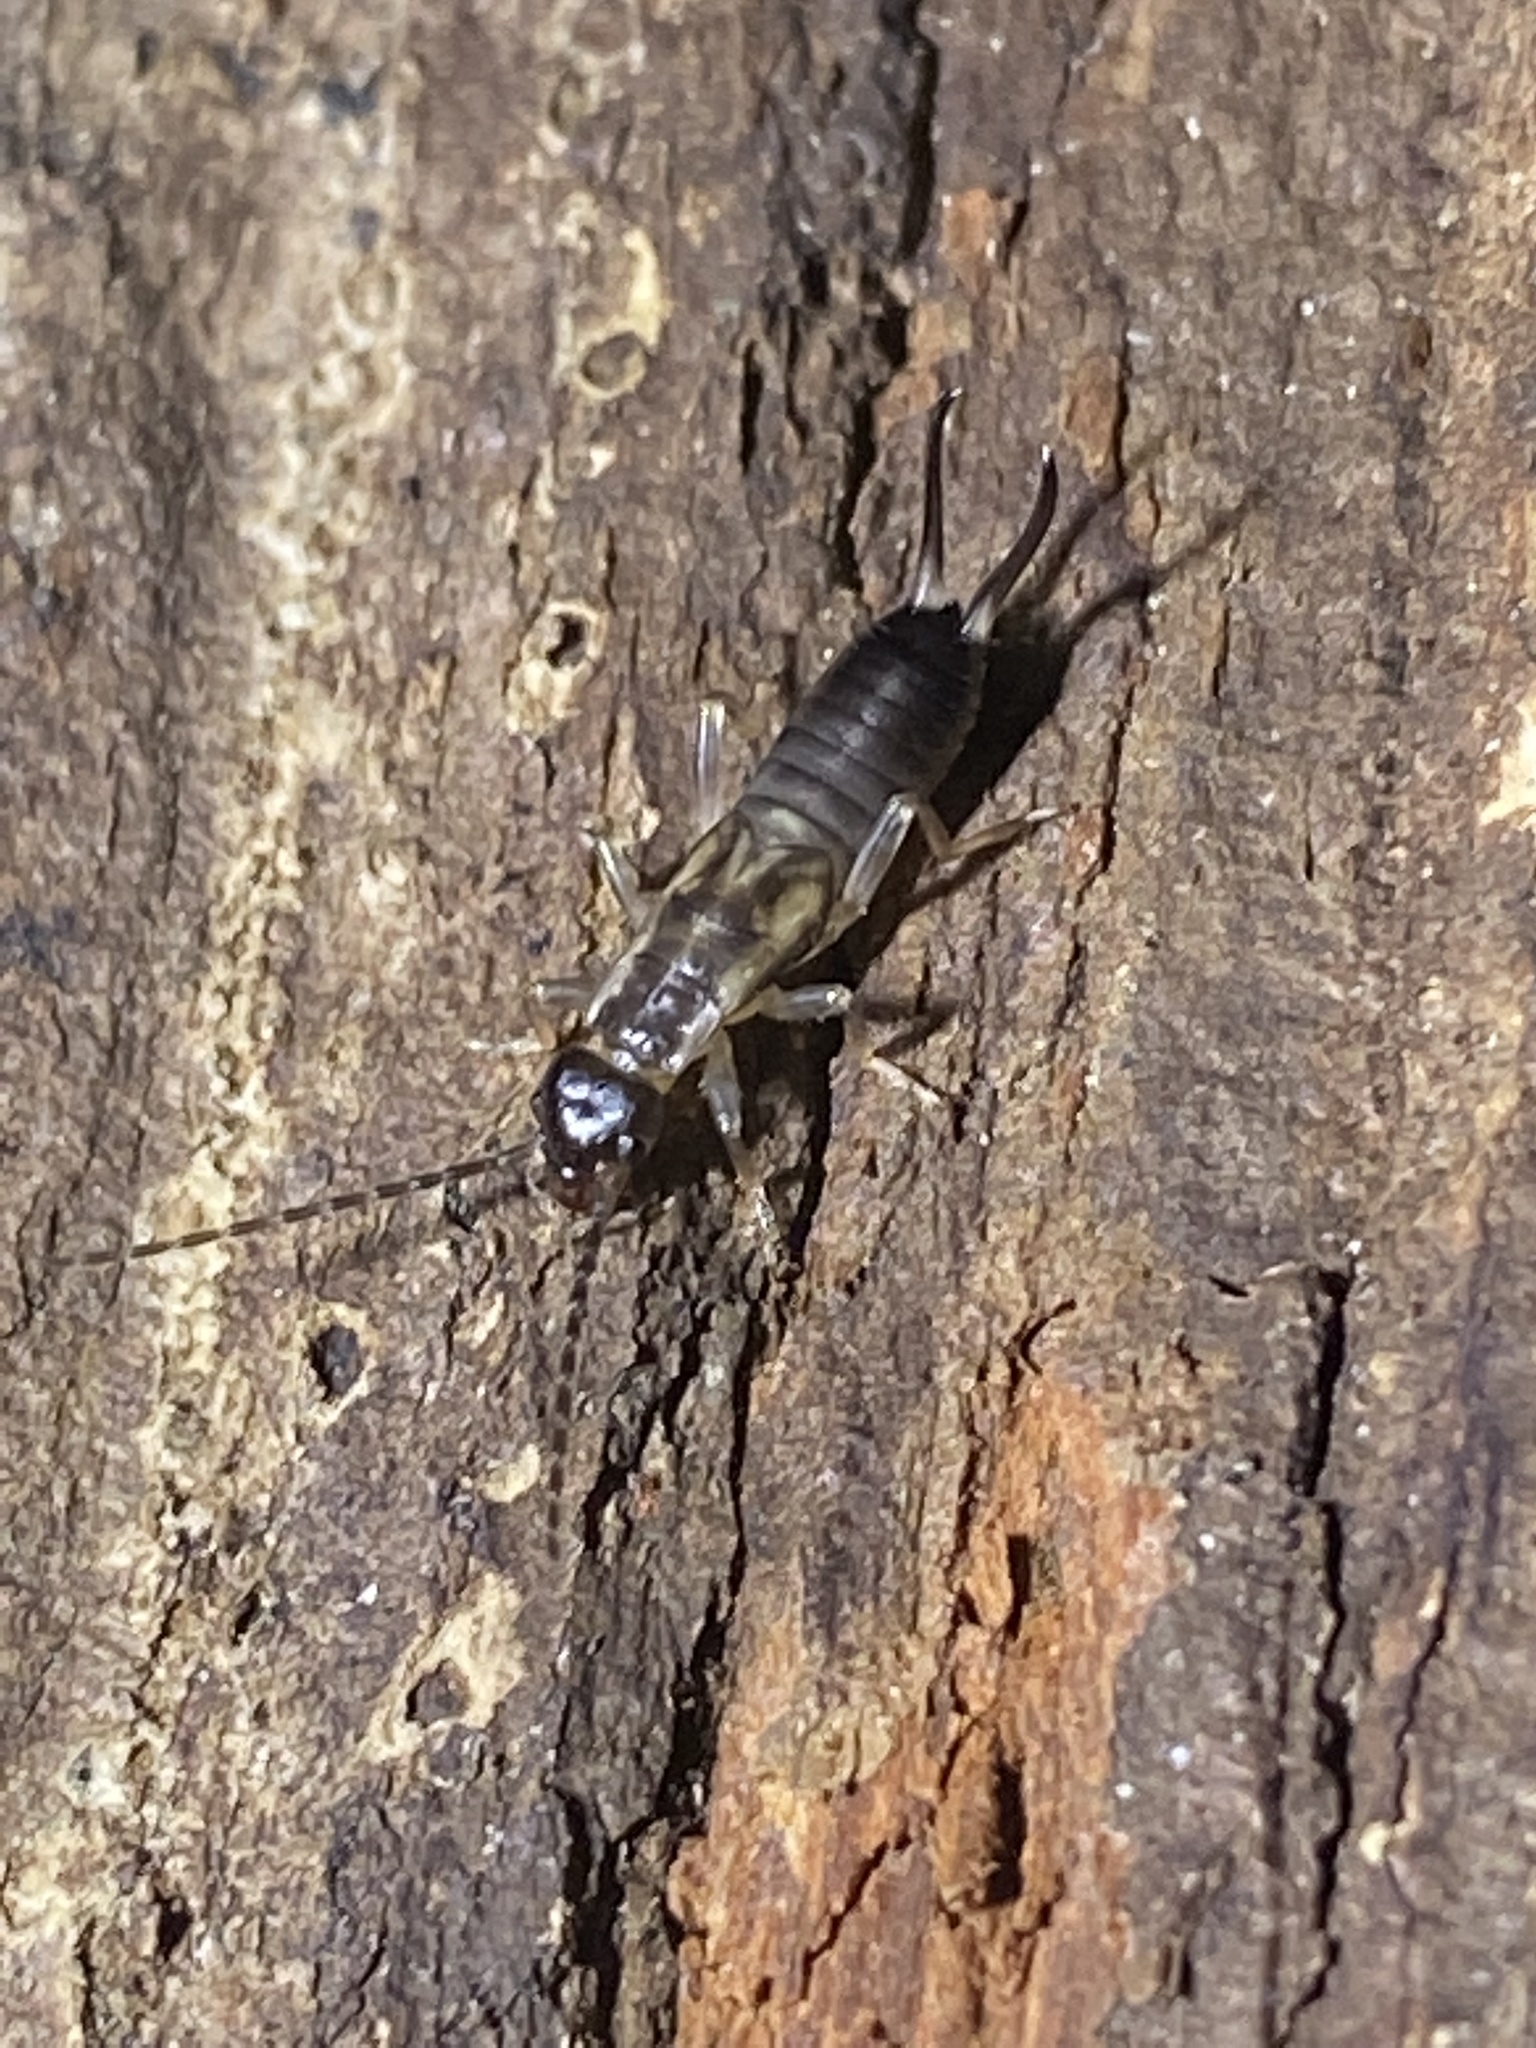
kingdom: Animalia
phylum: Arthropoda
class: Insecta
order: Dermaptera
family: Forficulidae
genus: Forficula
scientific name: Forficula
